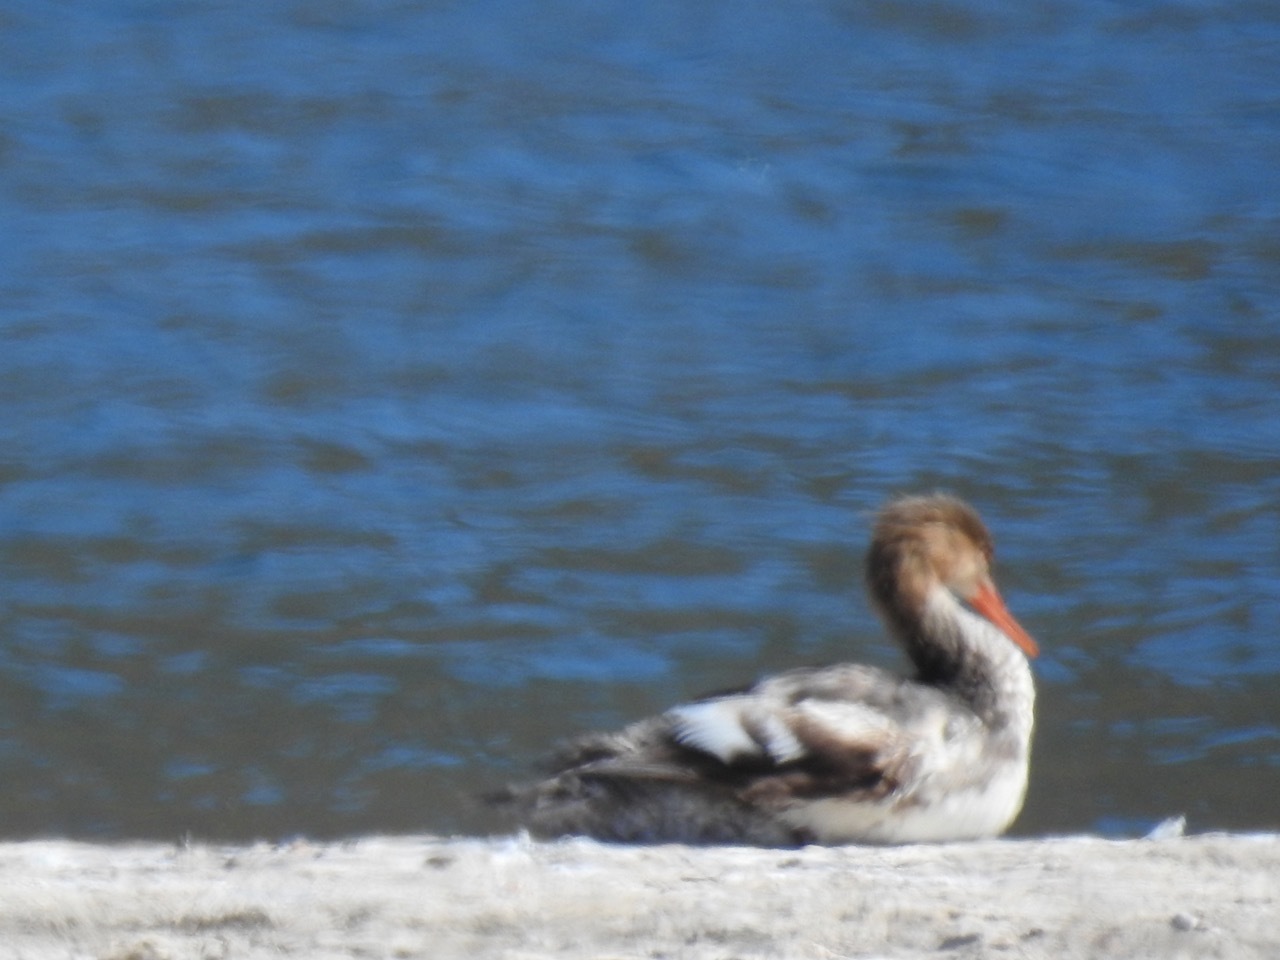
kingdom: Animalia
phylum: Chordata
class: Aves
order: Anseriformes
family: Anatidae
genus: Mergus
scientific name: Mergus serrator
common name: Red-breasted merganser
